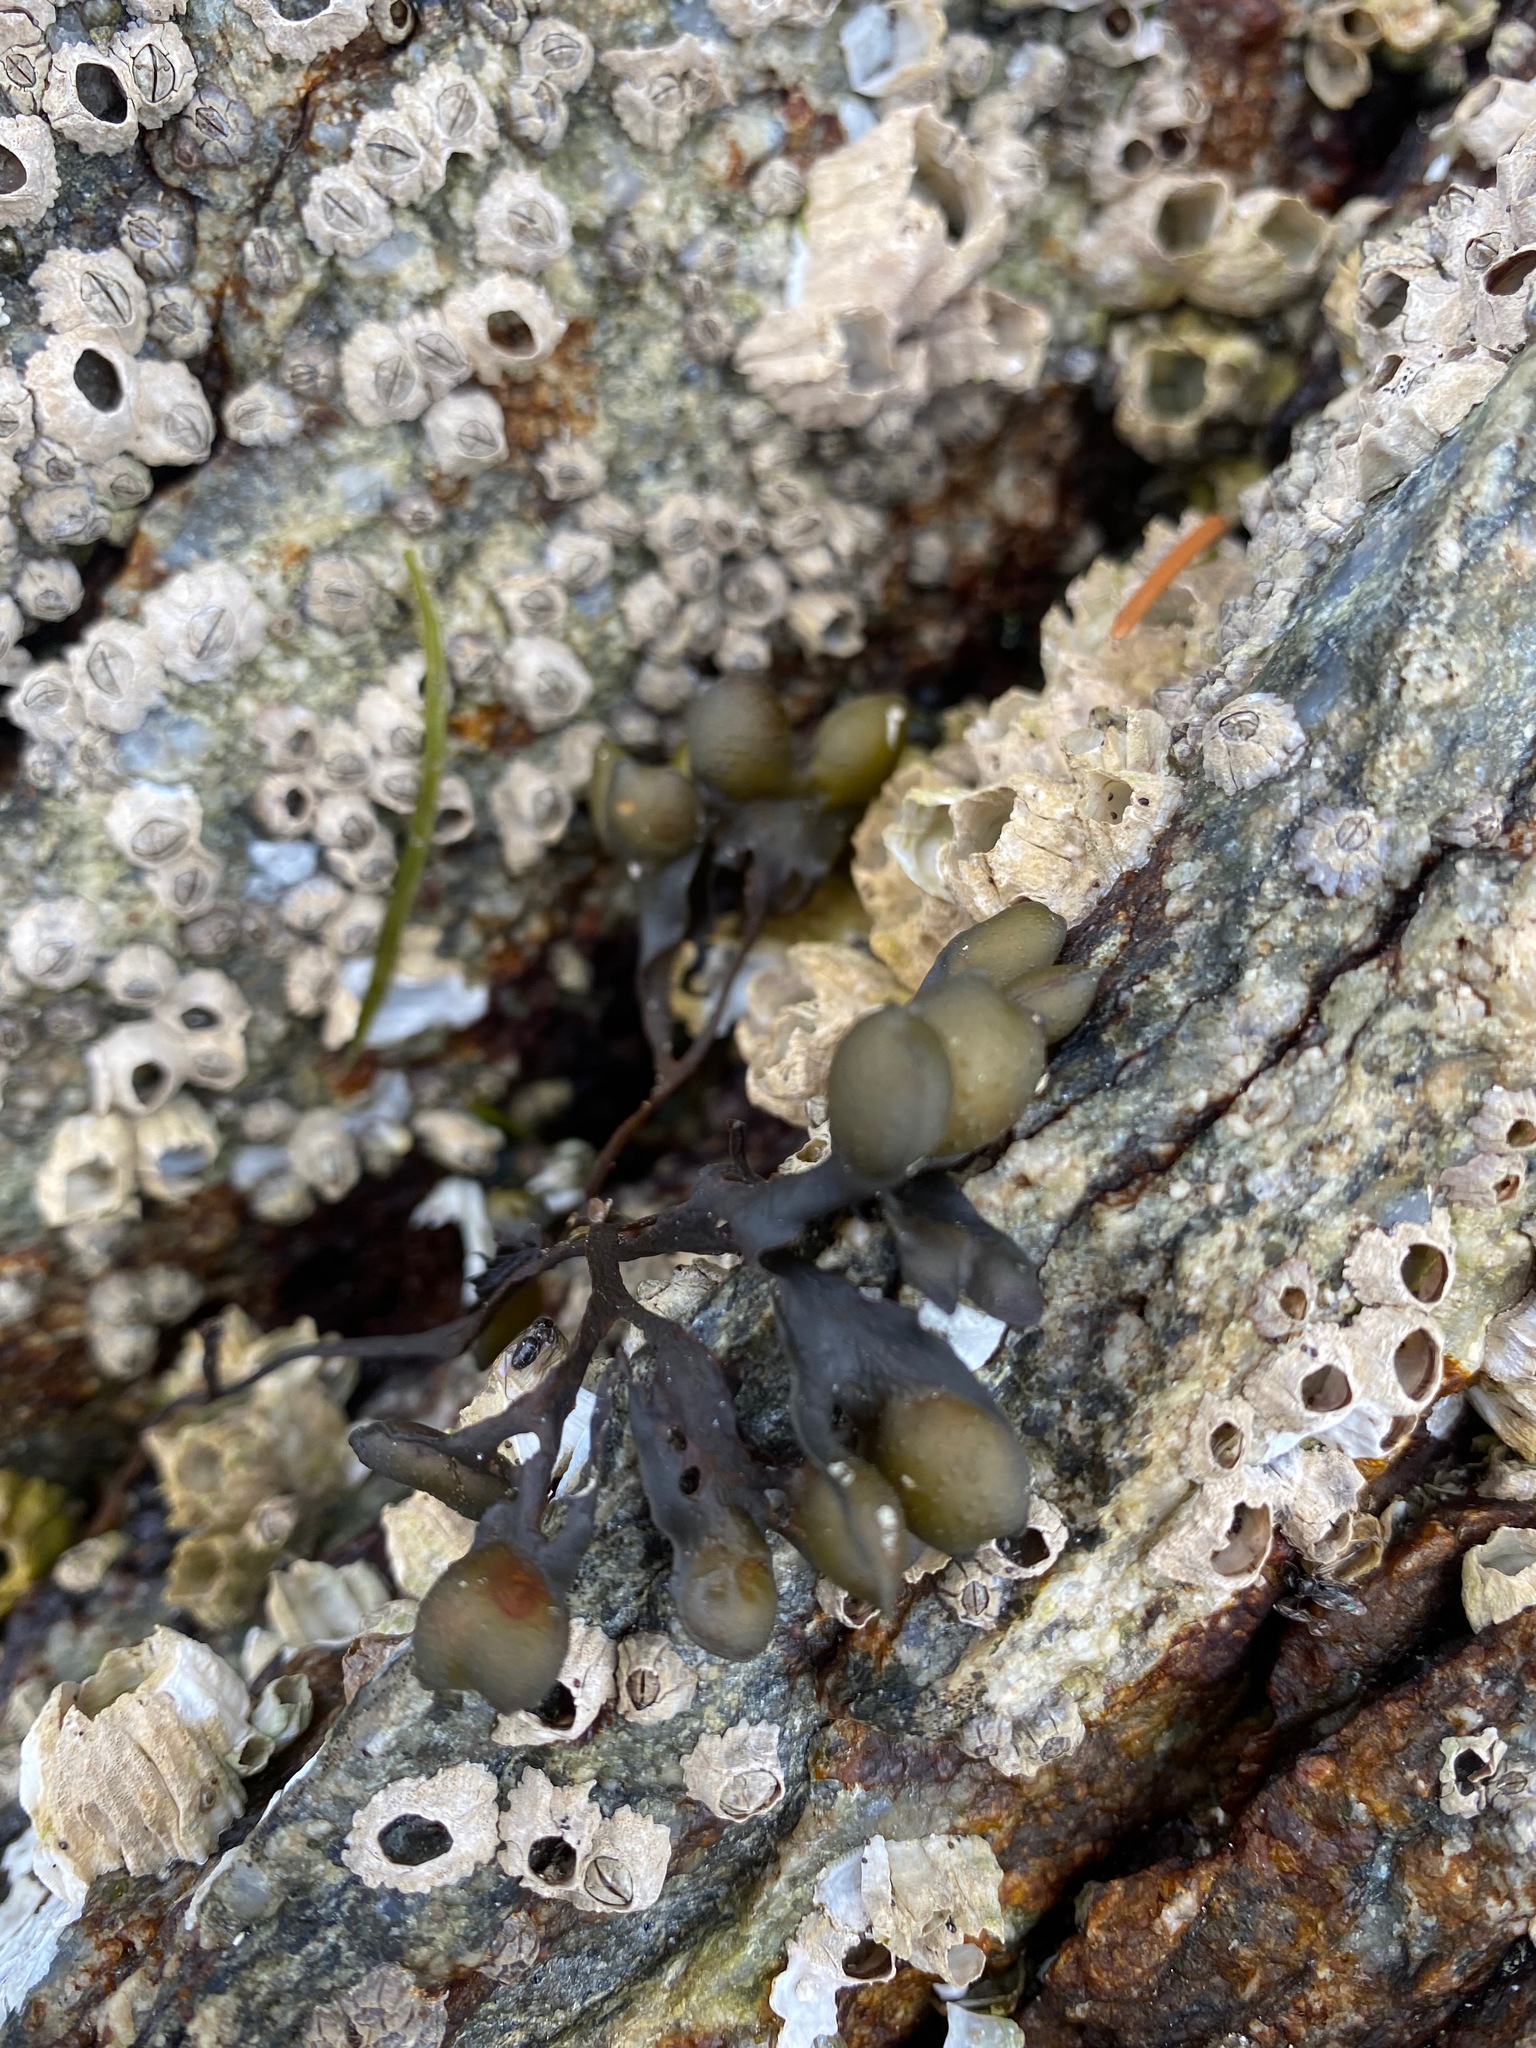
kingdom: Chromista
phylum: Ochrophyta
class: Phaeophyceae
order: Fucales
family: Fucaceae
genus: Fucus
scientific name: Fucus distichus
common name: Rockweed
